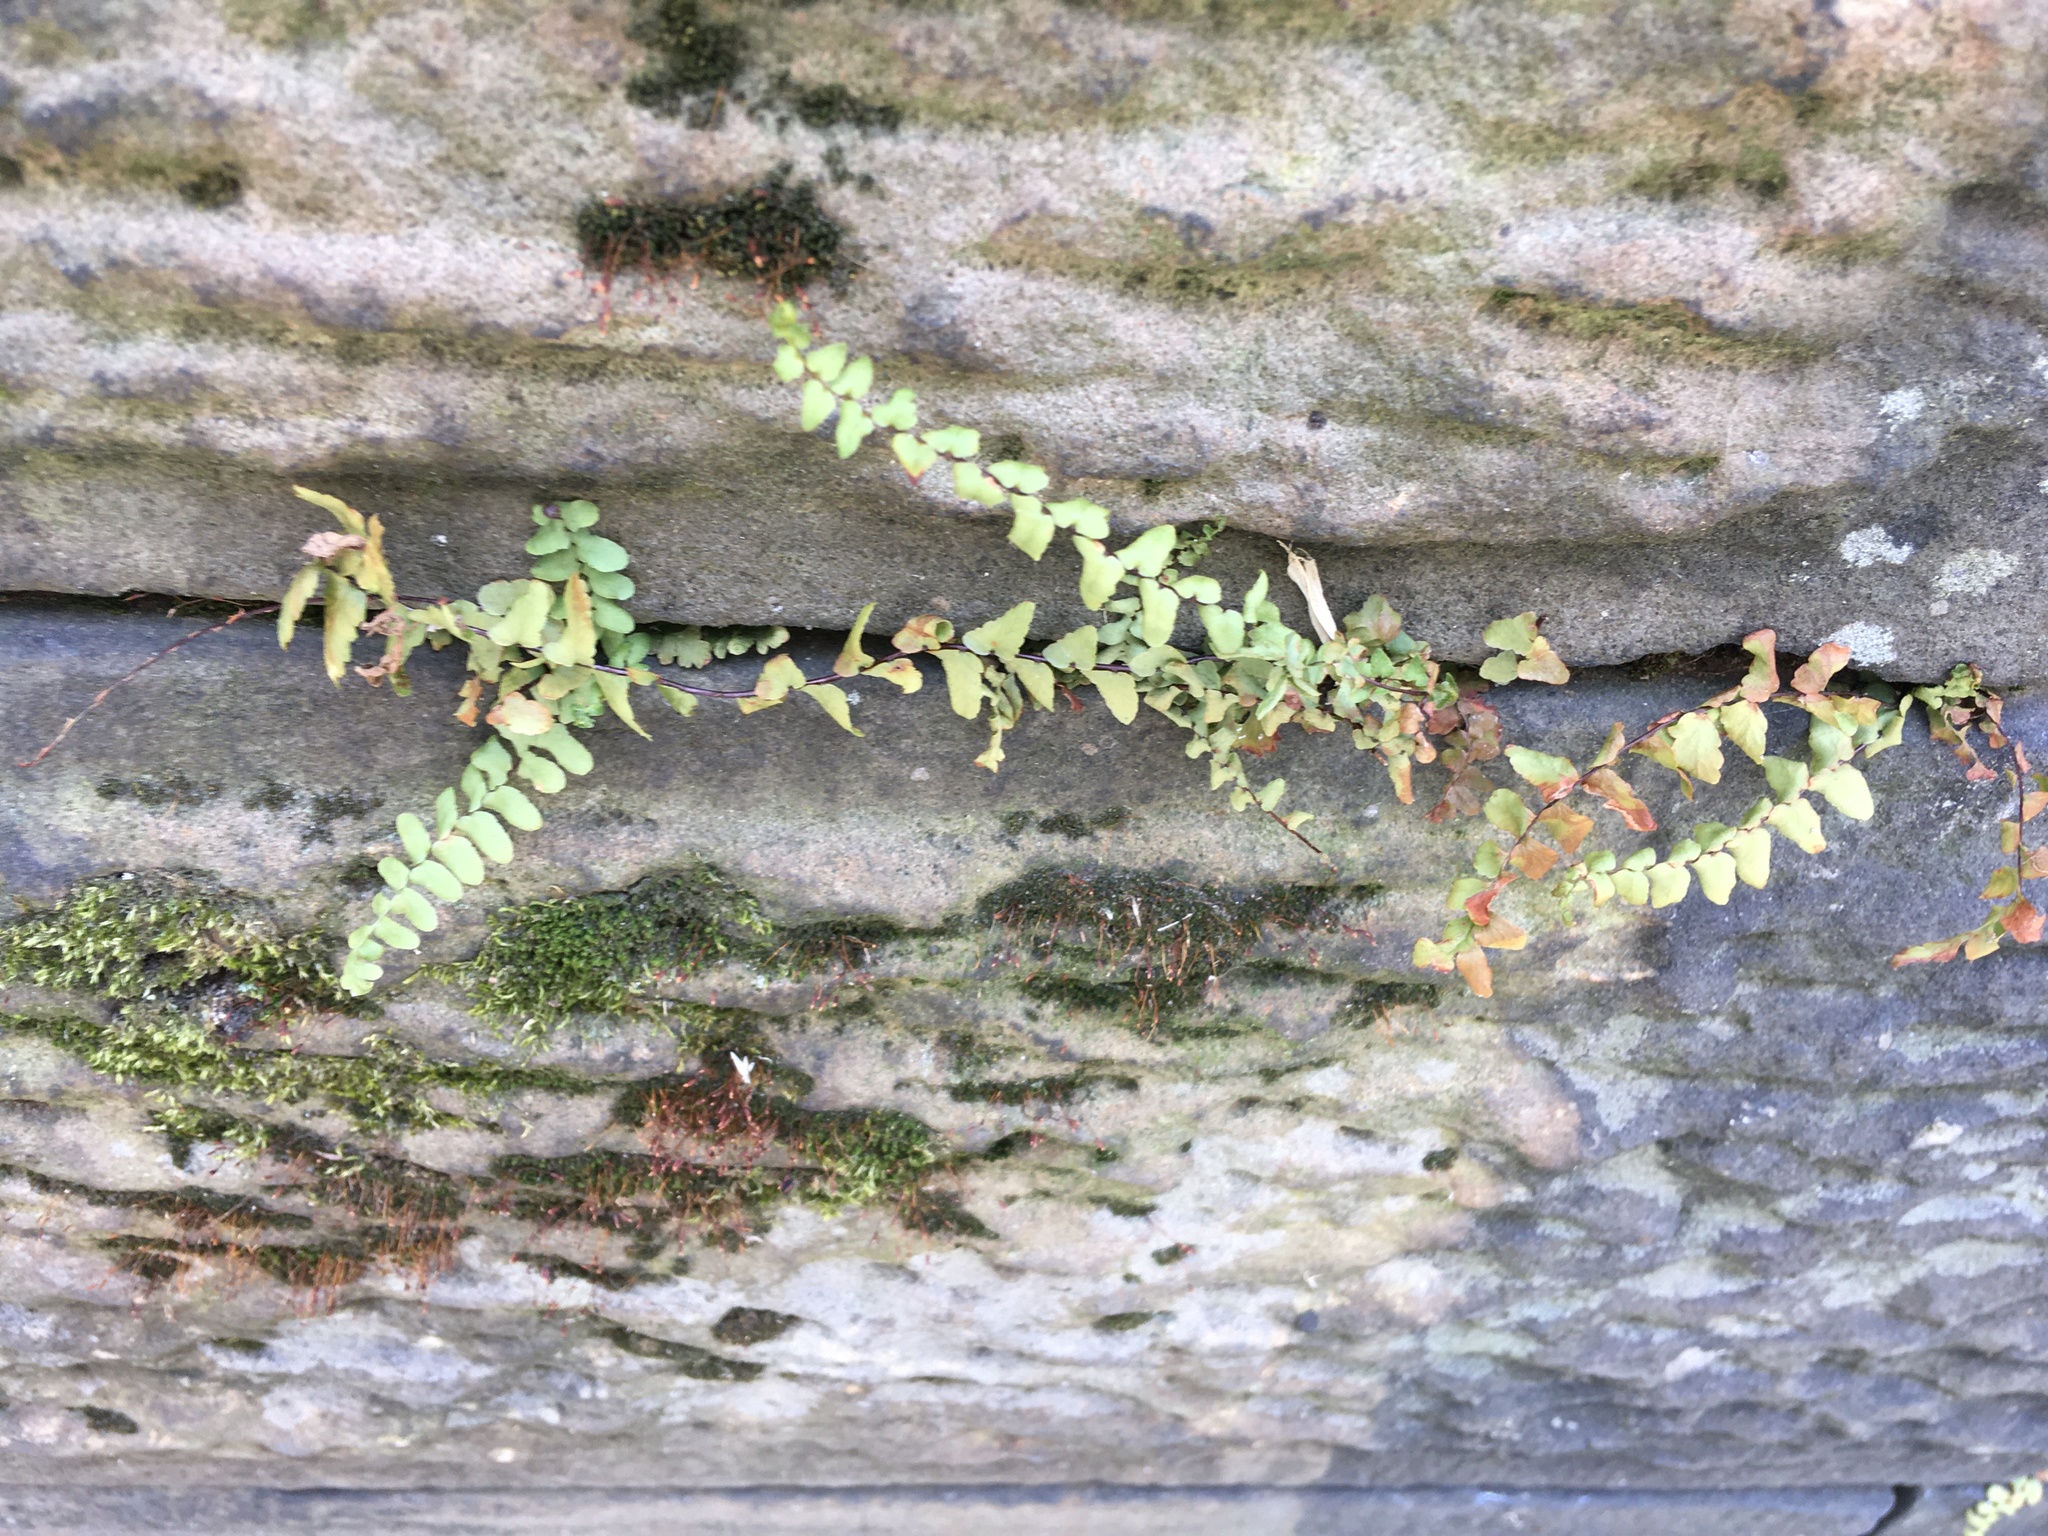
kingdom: Plantae
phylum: Tracheophyta
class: Polypodiopsida
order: Polypodiales
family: Aspleniaceae
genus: Asplenium
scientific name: Asplenium platyneuron
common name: Ebony spleenwort
